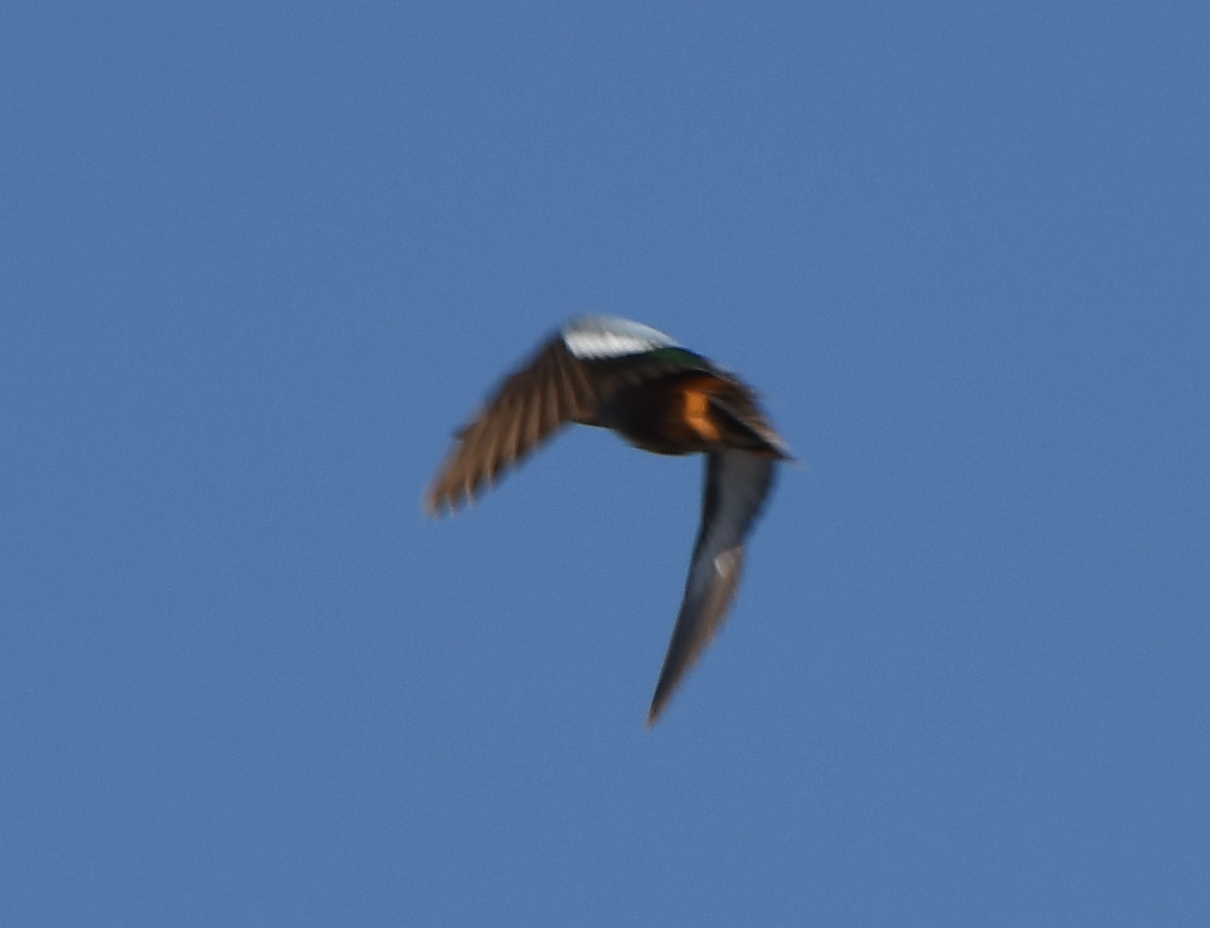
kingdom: Animalia
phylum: Chordata
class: Aves
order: Anseriformes
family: Anatidae
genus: Spatula
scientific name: Spatula cyanoptera
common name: Cinnamon teal
